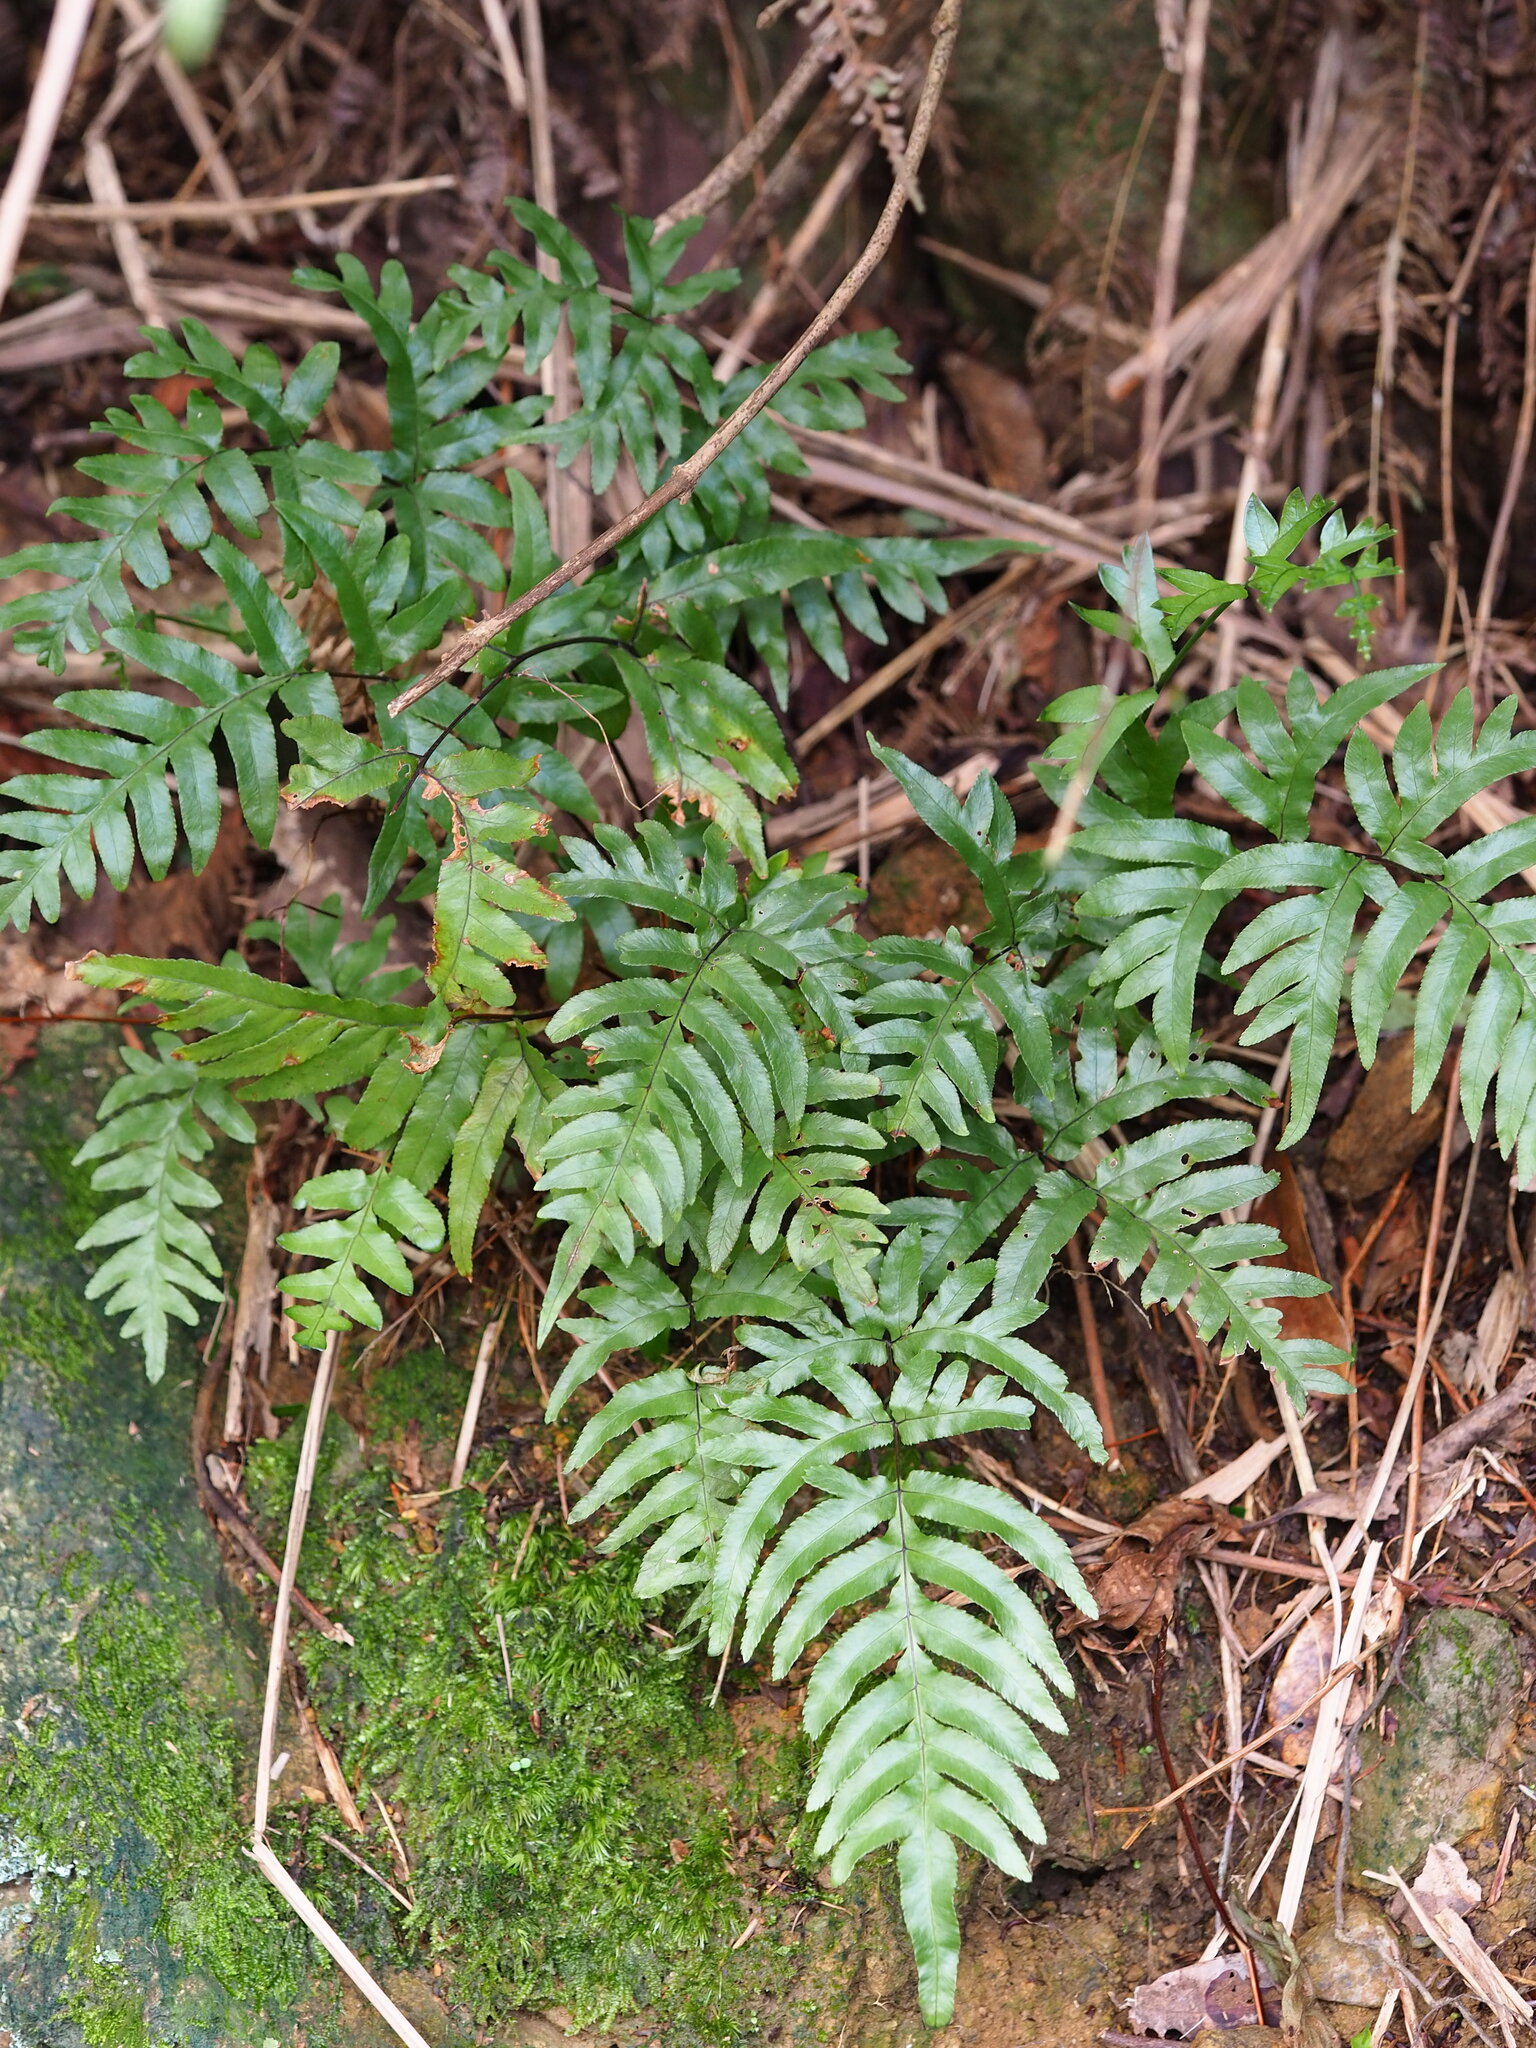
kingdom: Plantae
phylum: Tracheophyta
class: Polypodiopsida
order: Polypodiales
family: Pteridaceae
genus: Pteris
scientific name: Pteris semipinnata
